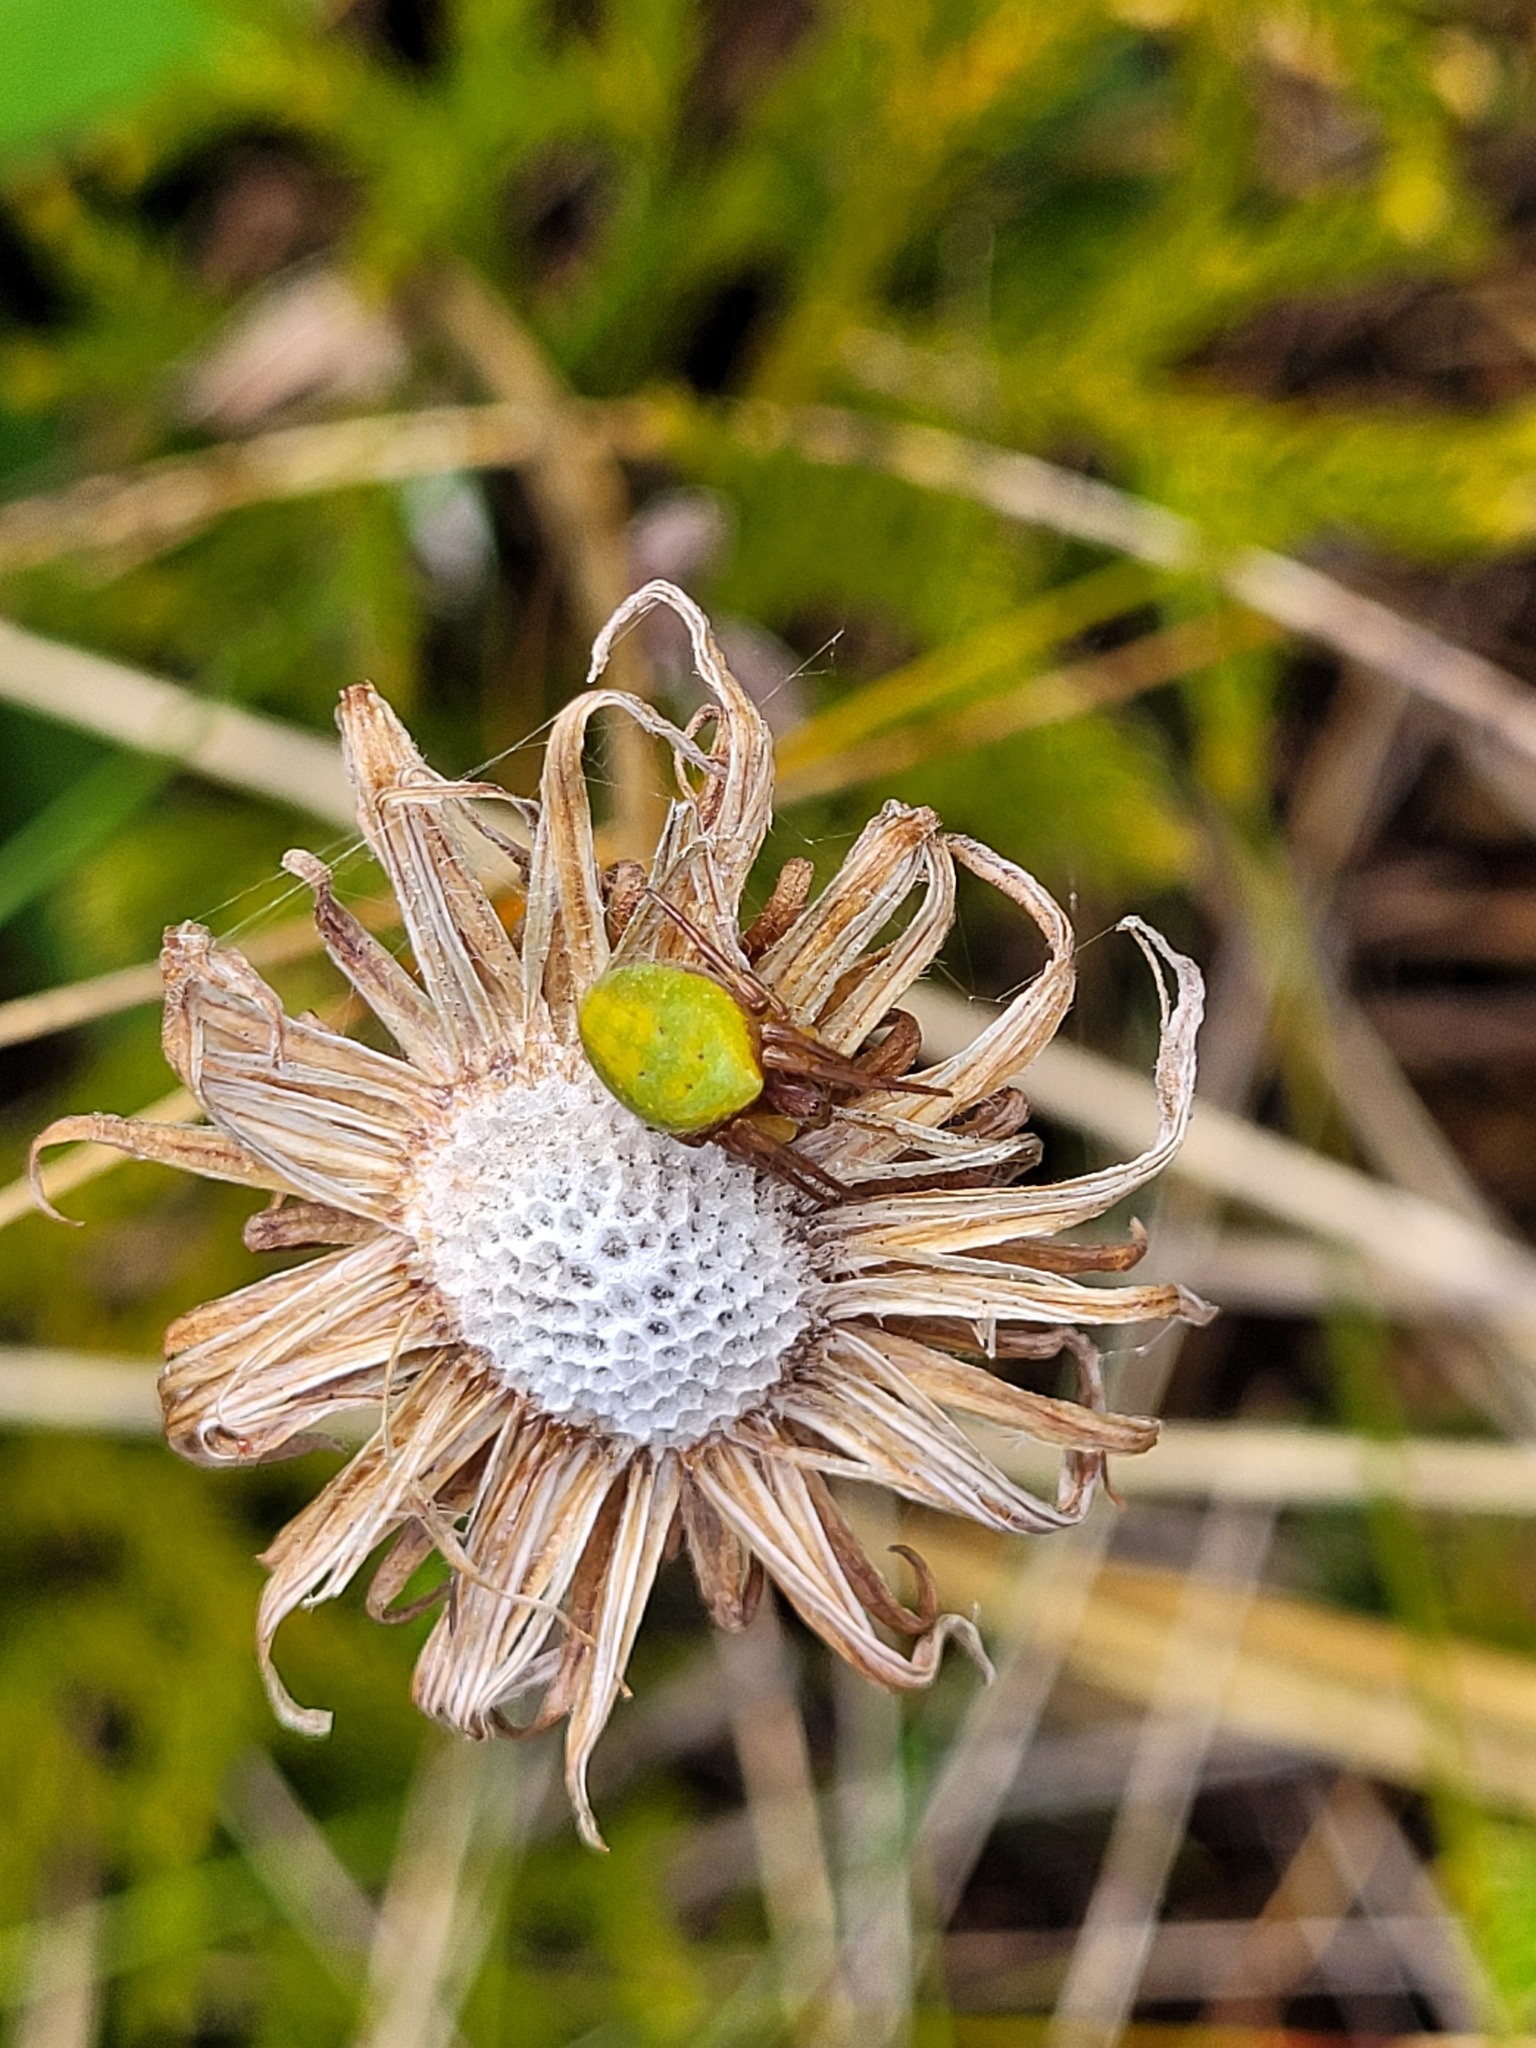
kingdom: Animalia
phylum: Arthropoda
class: Arachnida
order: Araneae
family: Araneidae
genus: Colaranea
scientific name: Colaranea viriditas
